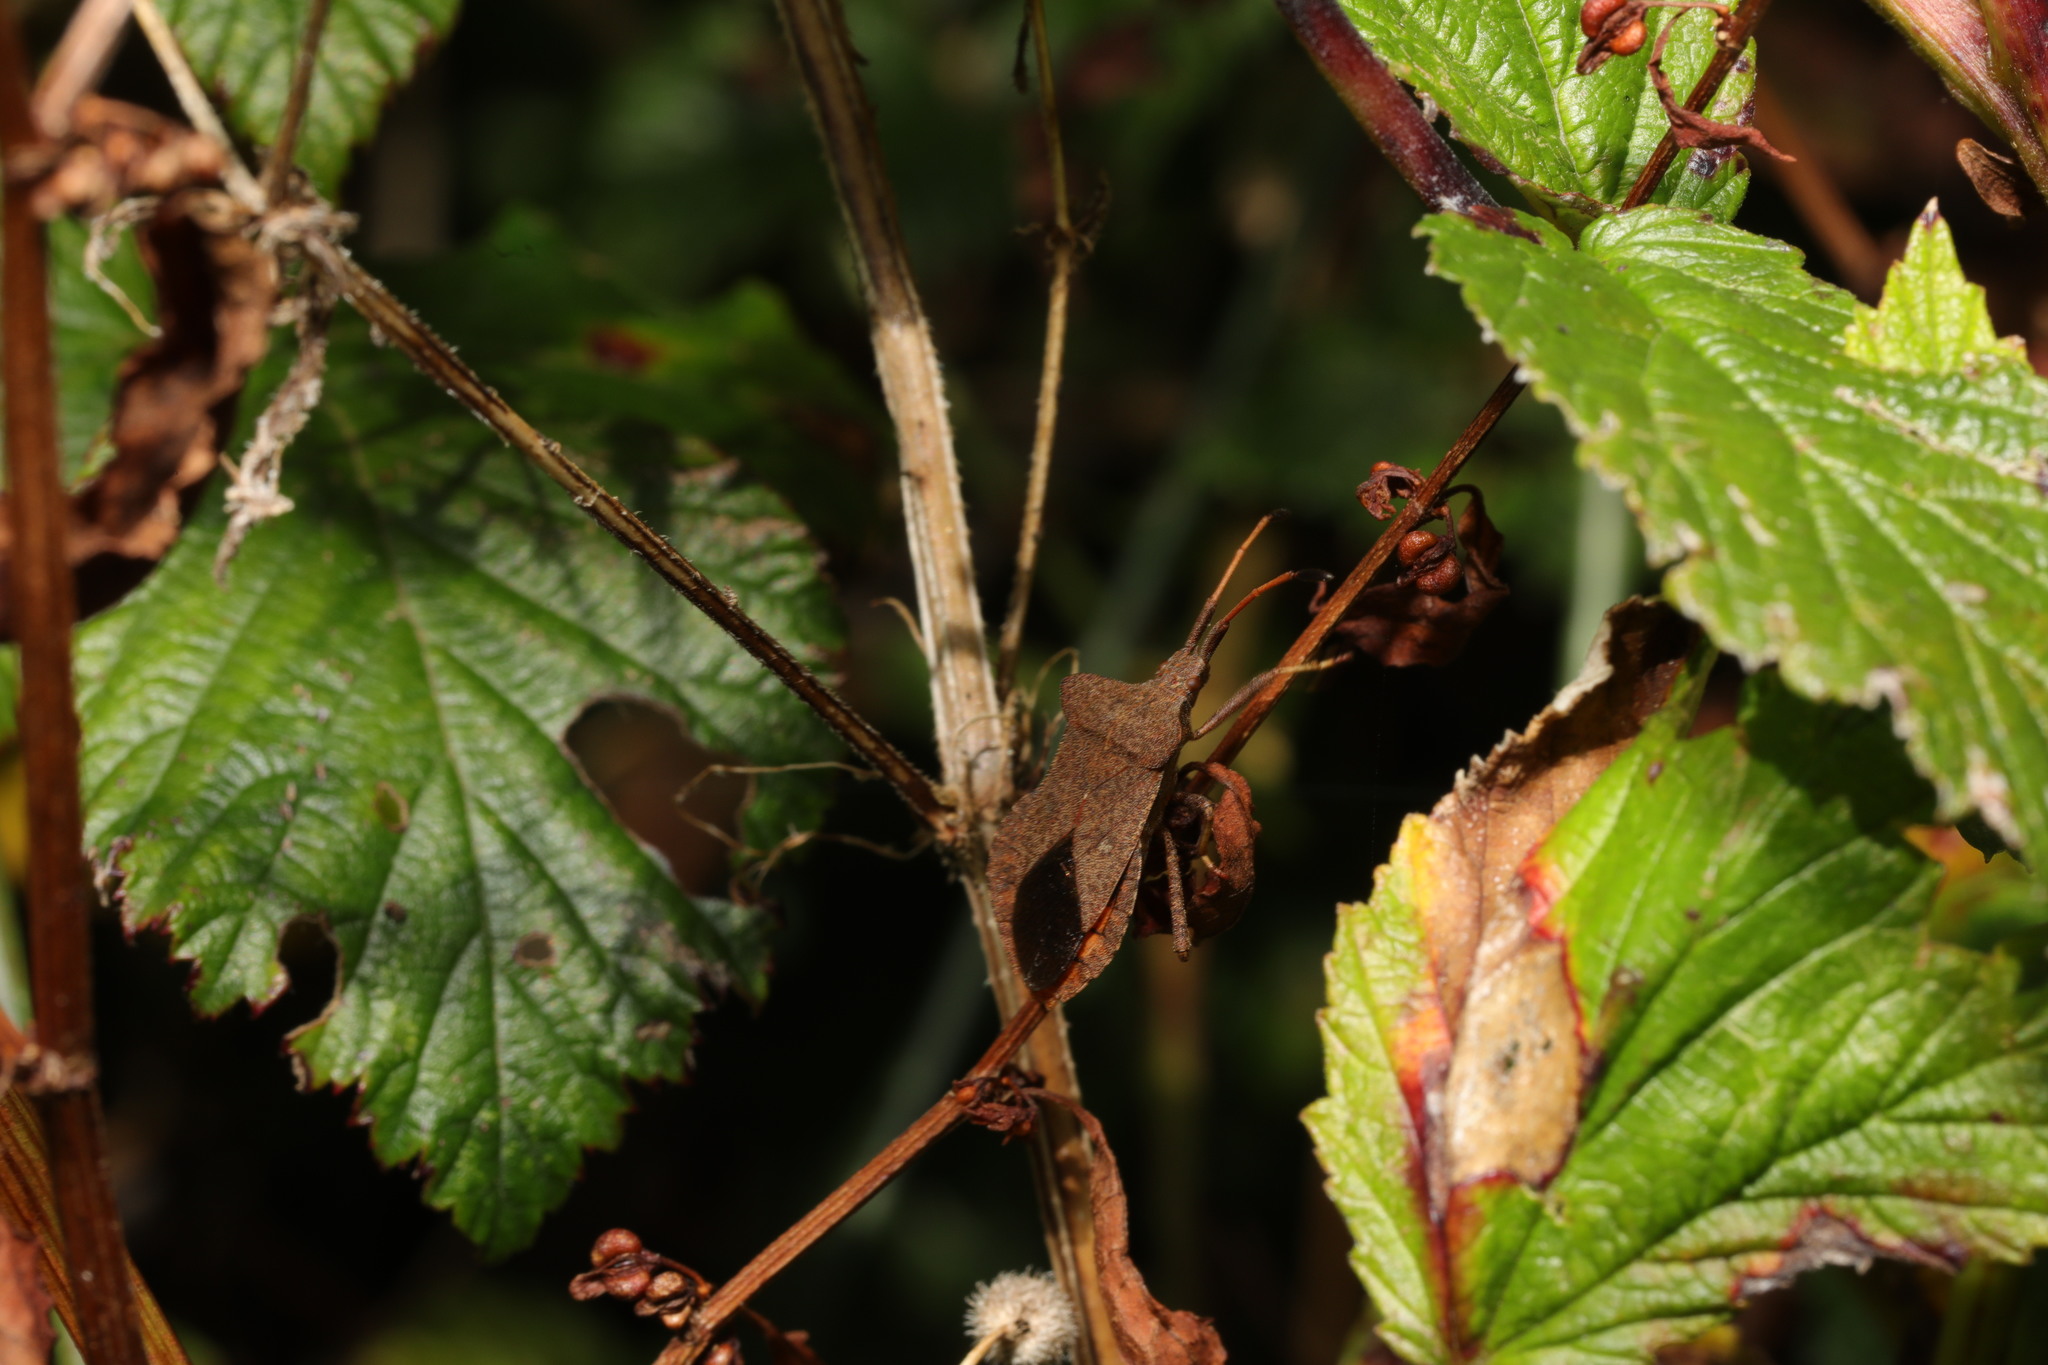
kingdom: Animalia
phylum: Arthropoda
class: Insecta
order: Hemiptera
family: Coreidae
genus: Coreus
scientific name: Coreus marginatus
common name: Dock bug
